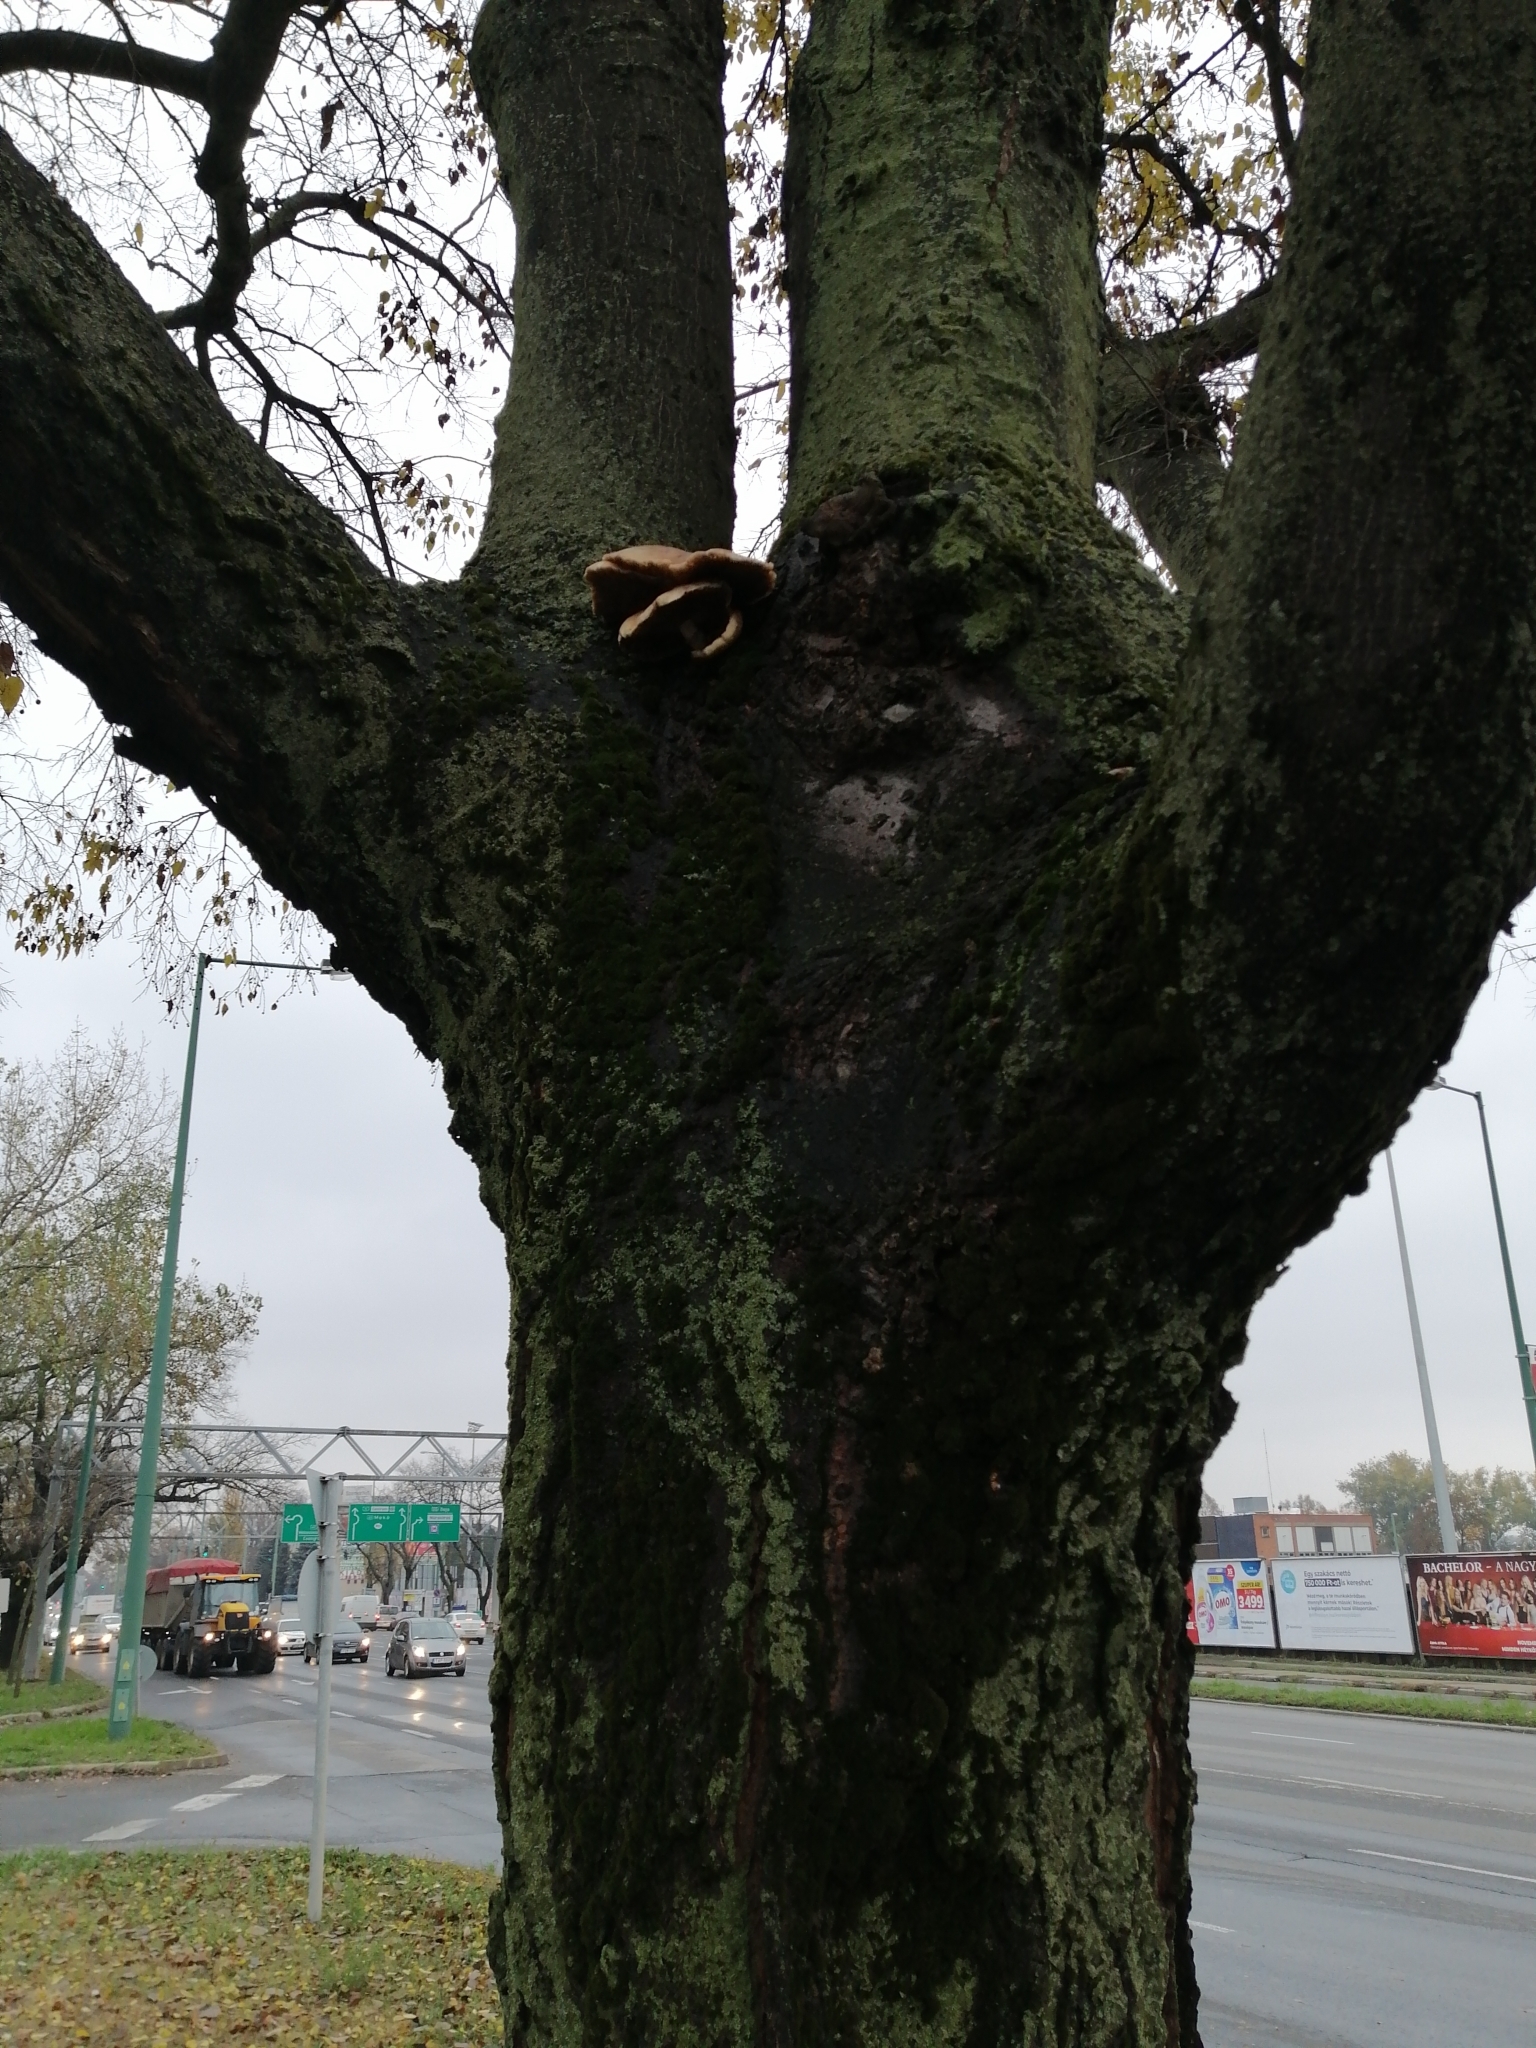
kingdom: Fungi
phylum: Basidiomycota
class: Agaricomycetes
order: Agaricales
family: Tubariaceae
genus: Cyclocybe
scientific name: Cyclocybe cylindracea
